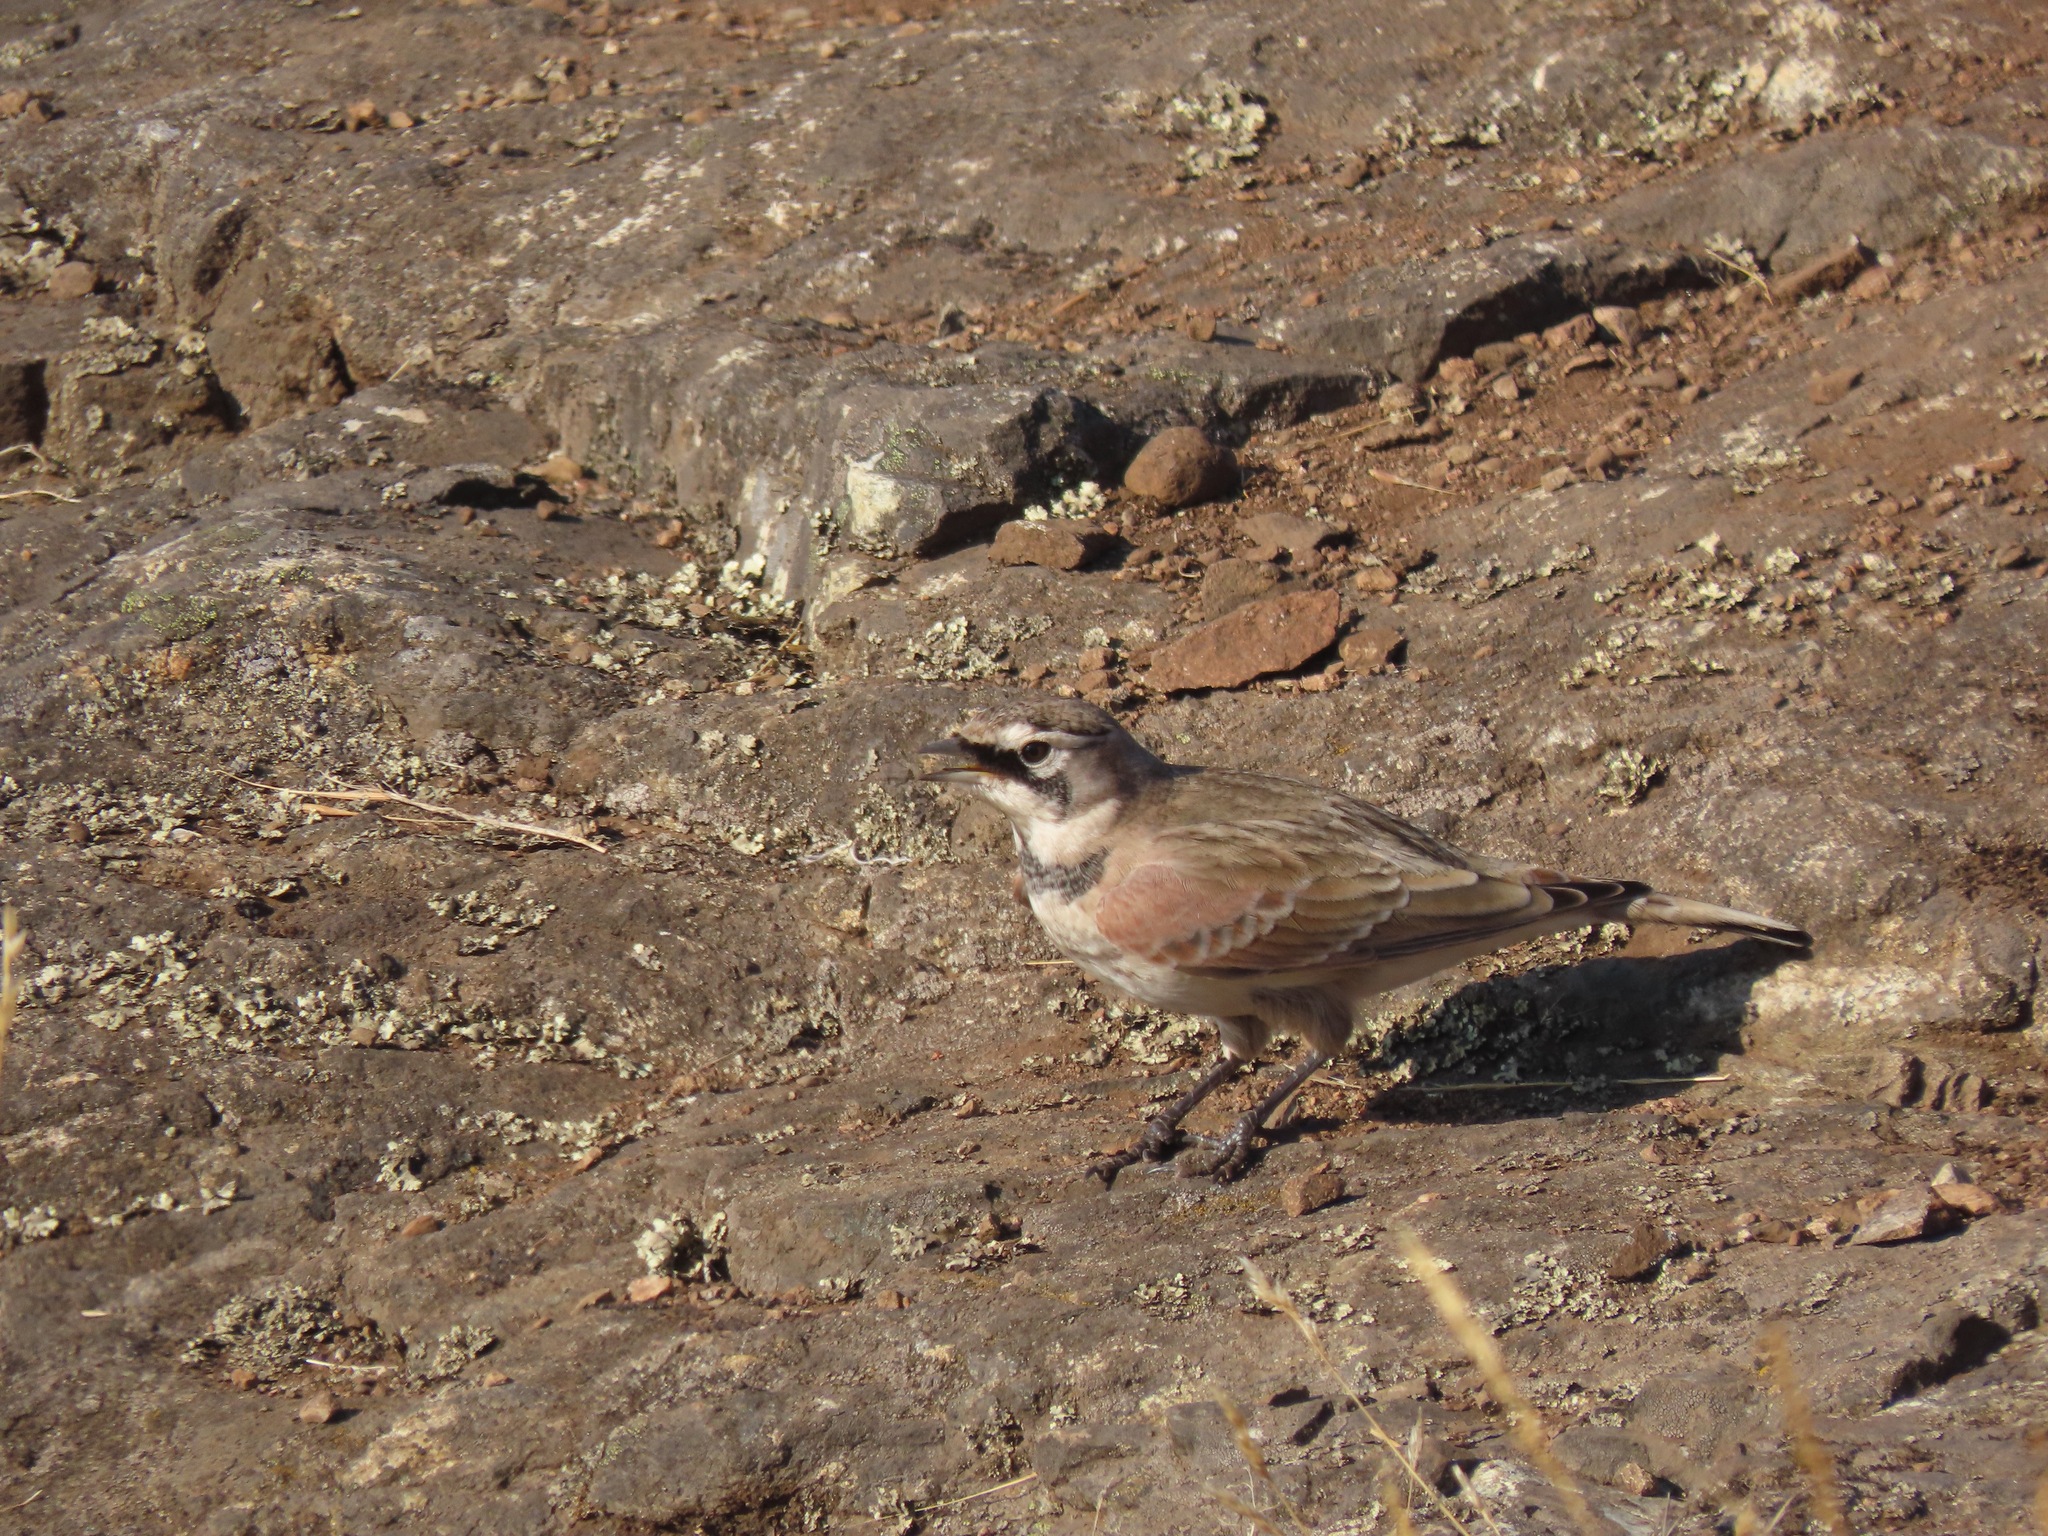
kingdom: Animalia
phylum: Chordata
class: Aves
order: Passeriformes
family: Alaudidae
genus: Eremophila
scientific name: Eremophila alpestris
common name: Horned lark
